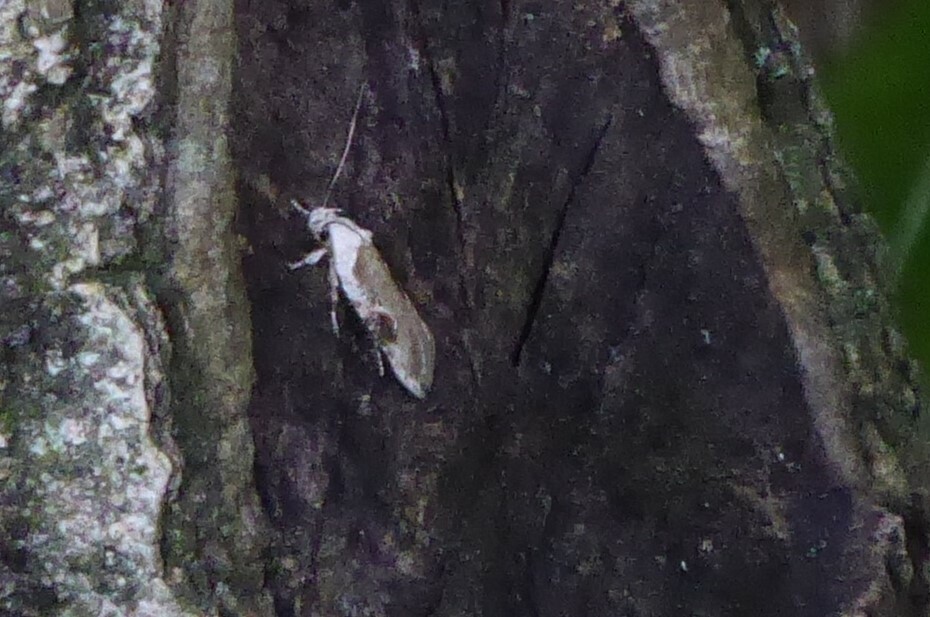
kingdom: Animalia
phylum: Arthropoda
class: Insecta
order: Lepidoptera
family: Depressariidae
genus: Agonopterix
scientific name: Agonopterix alstroemeriana
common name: Moth
